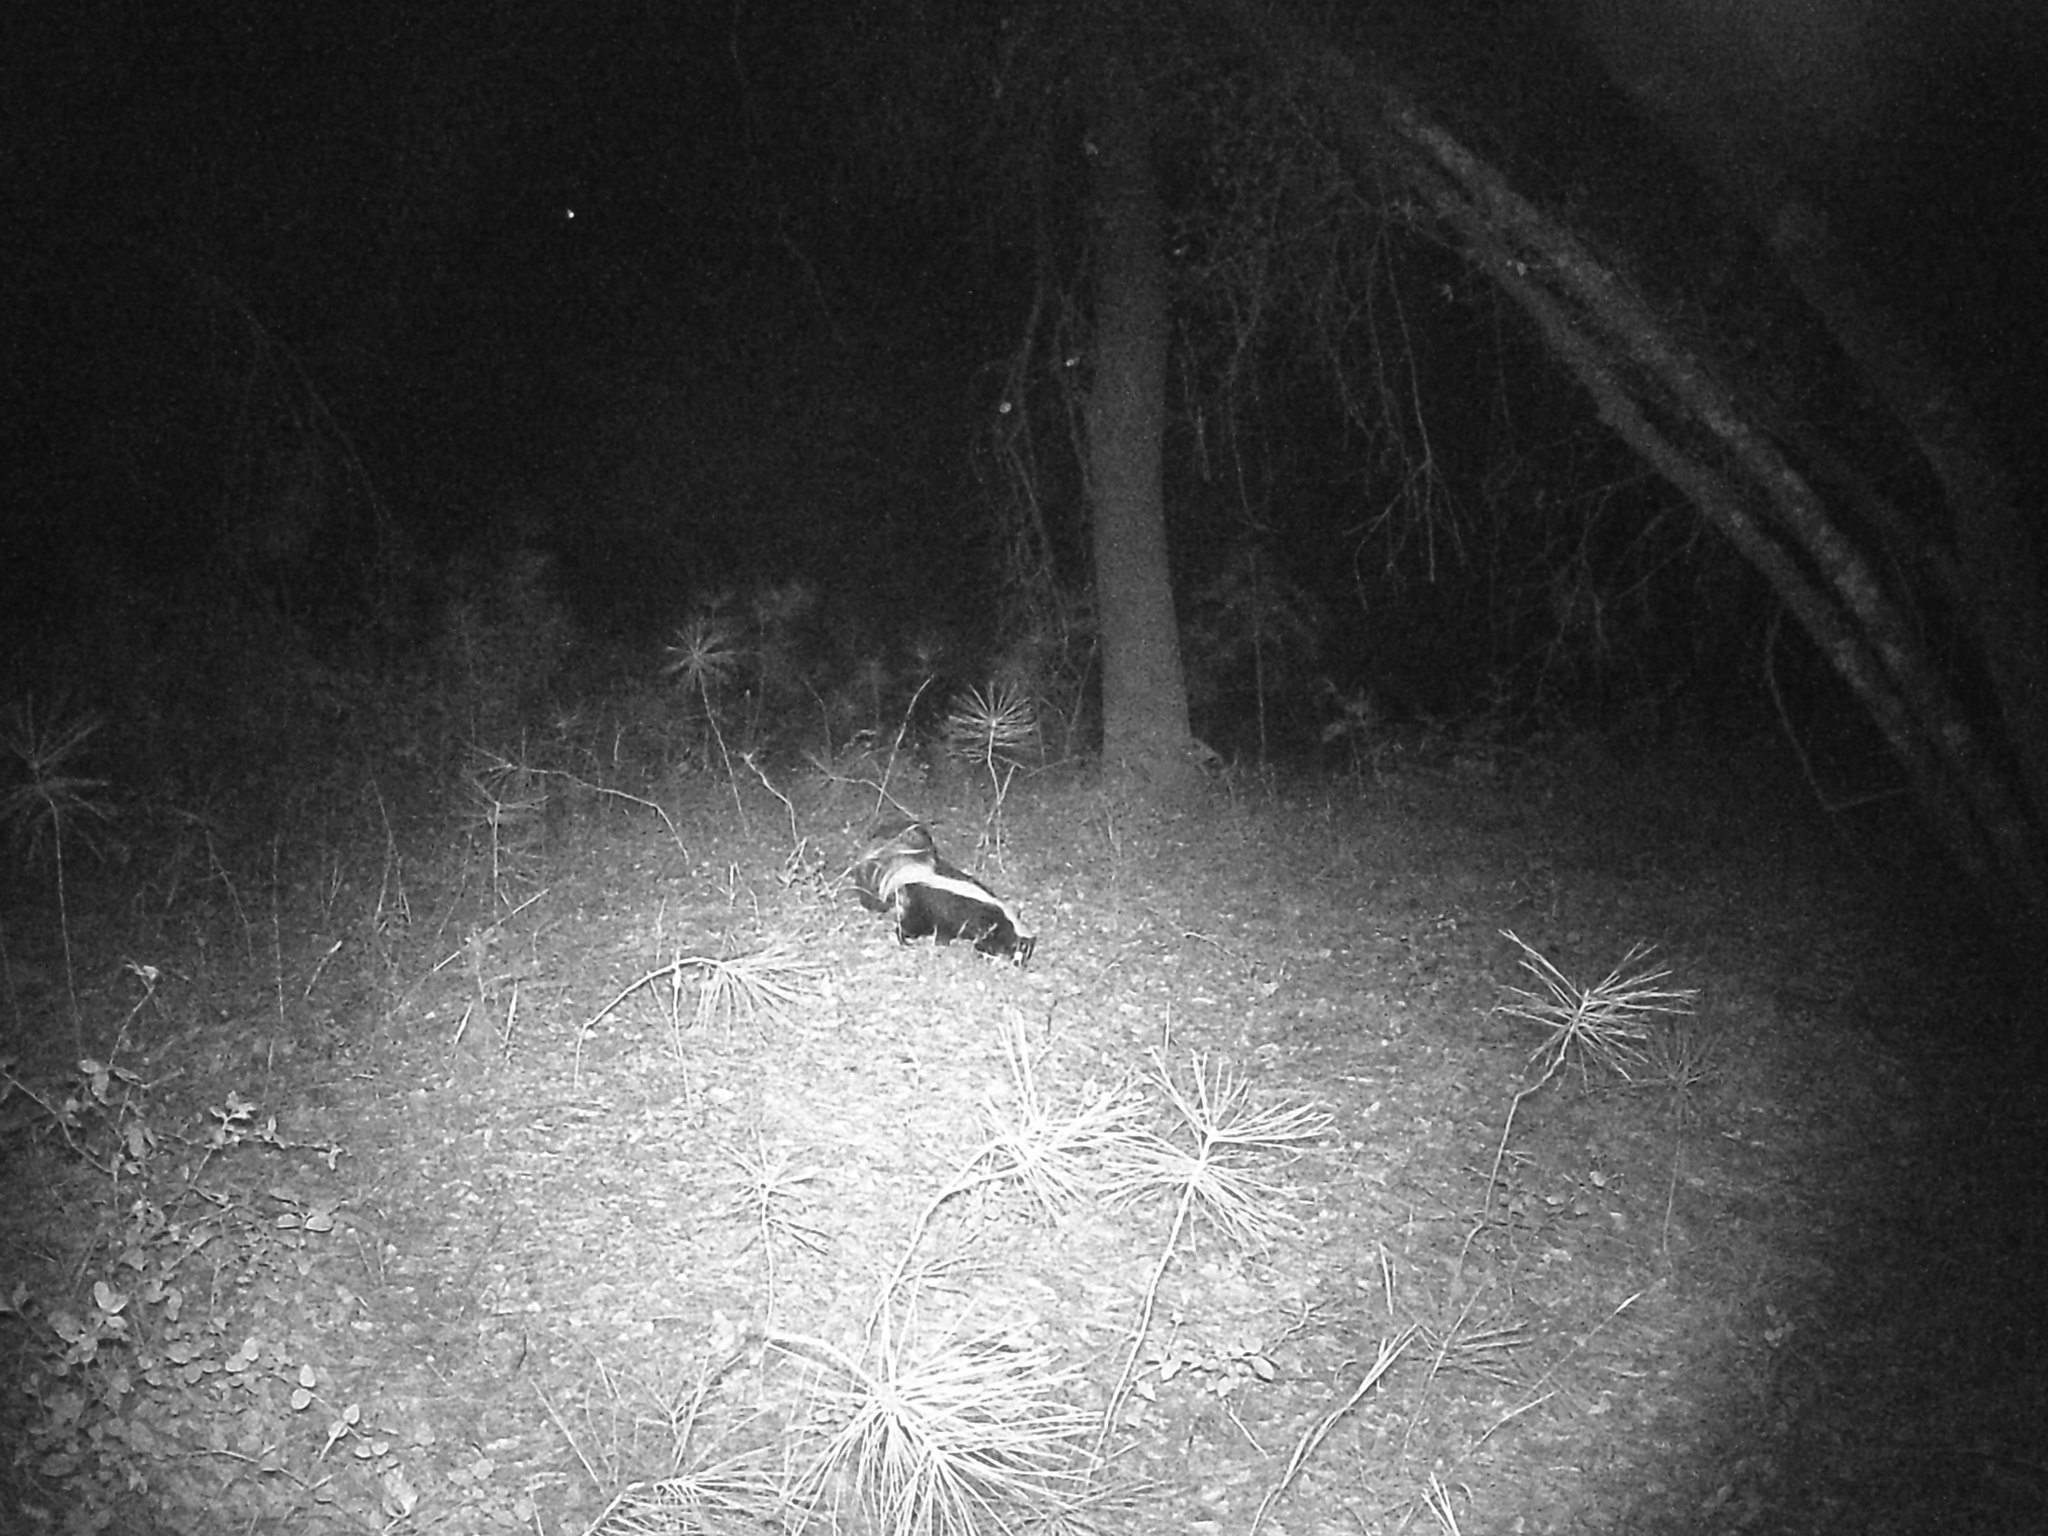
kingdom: Animalia
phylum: Chordata
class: Mammalia
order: Carnivora
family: Mephitidae
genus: Mephitis
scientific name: Mephitis mephitis
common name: Striped skunk
